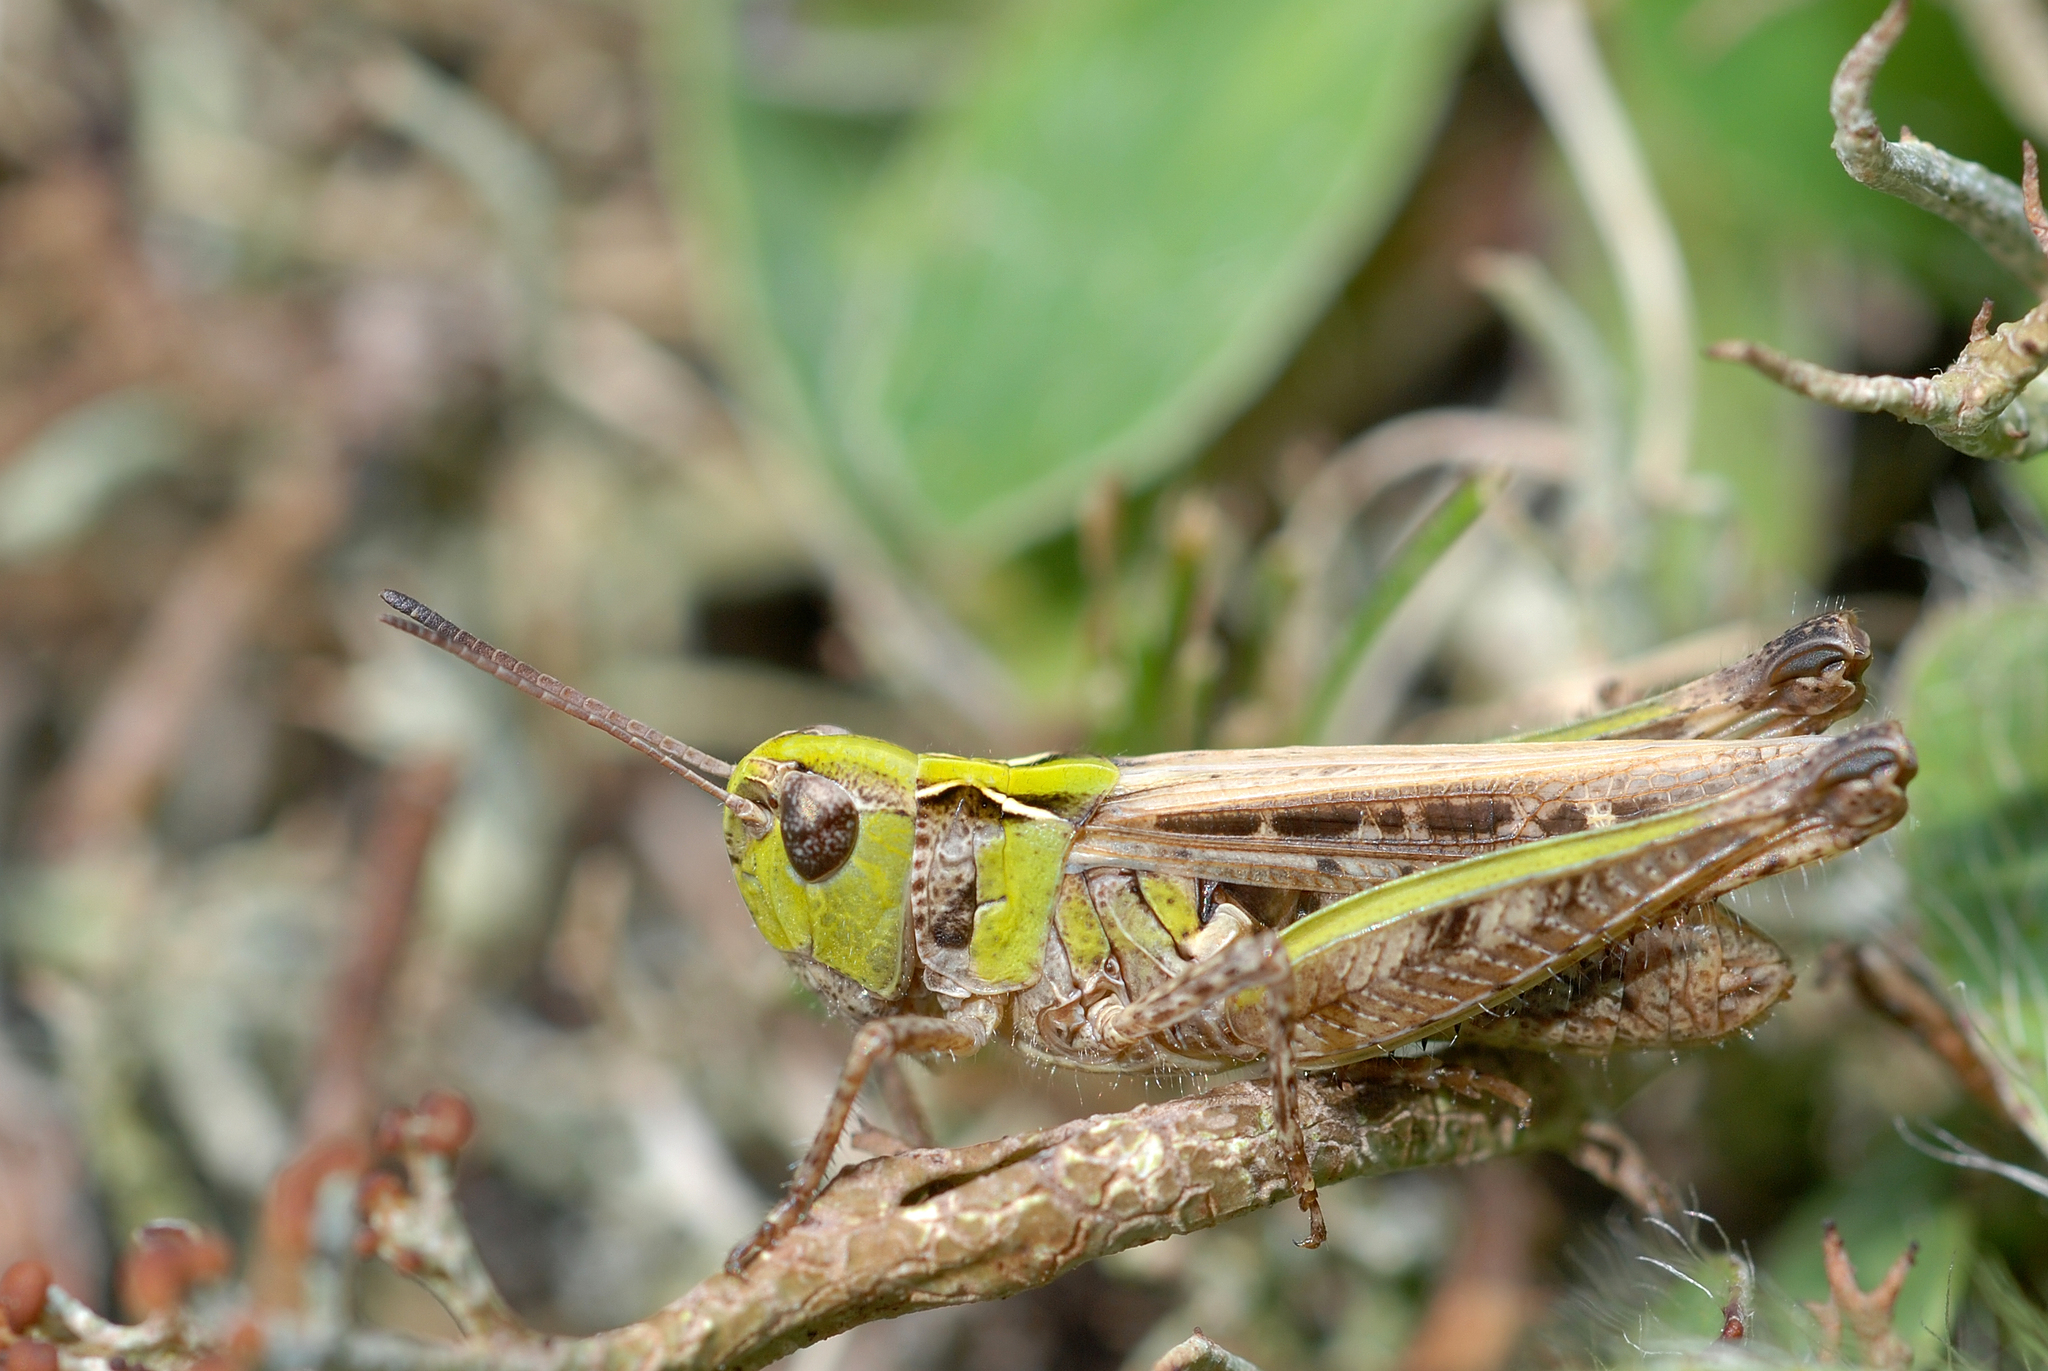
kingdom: Animalia
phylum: Arthropoda
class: Insecta
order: Orthoptera
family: Acrididae
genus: Myrmeleotettix
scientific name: Myrmeleotettix maculatus
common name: Mottled grasshopper
